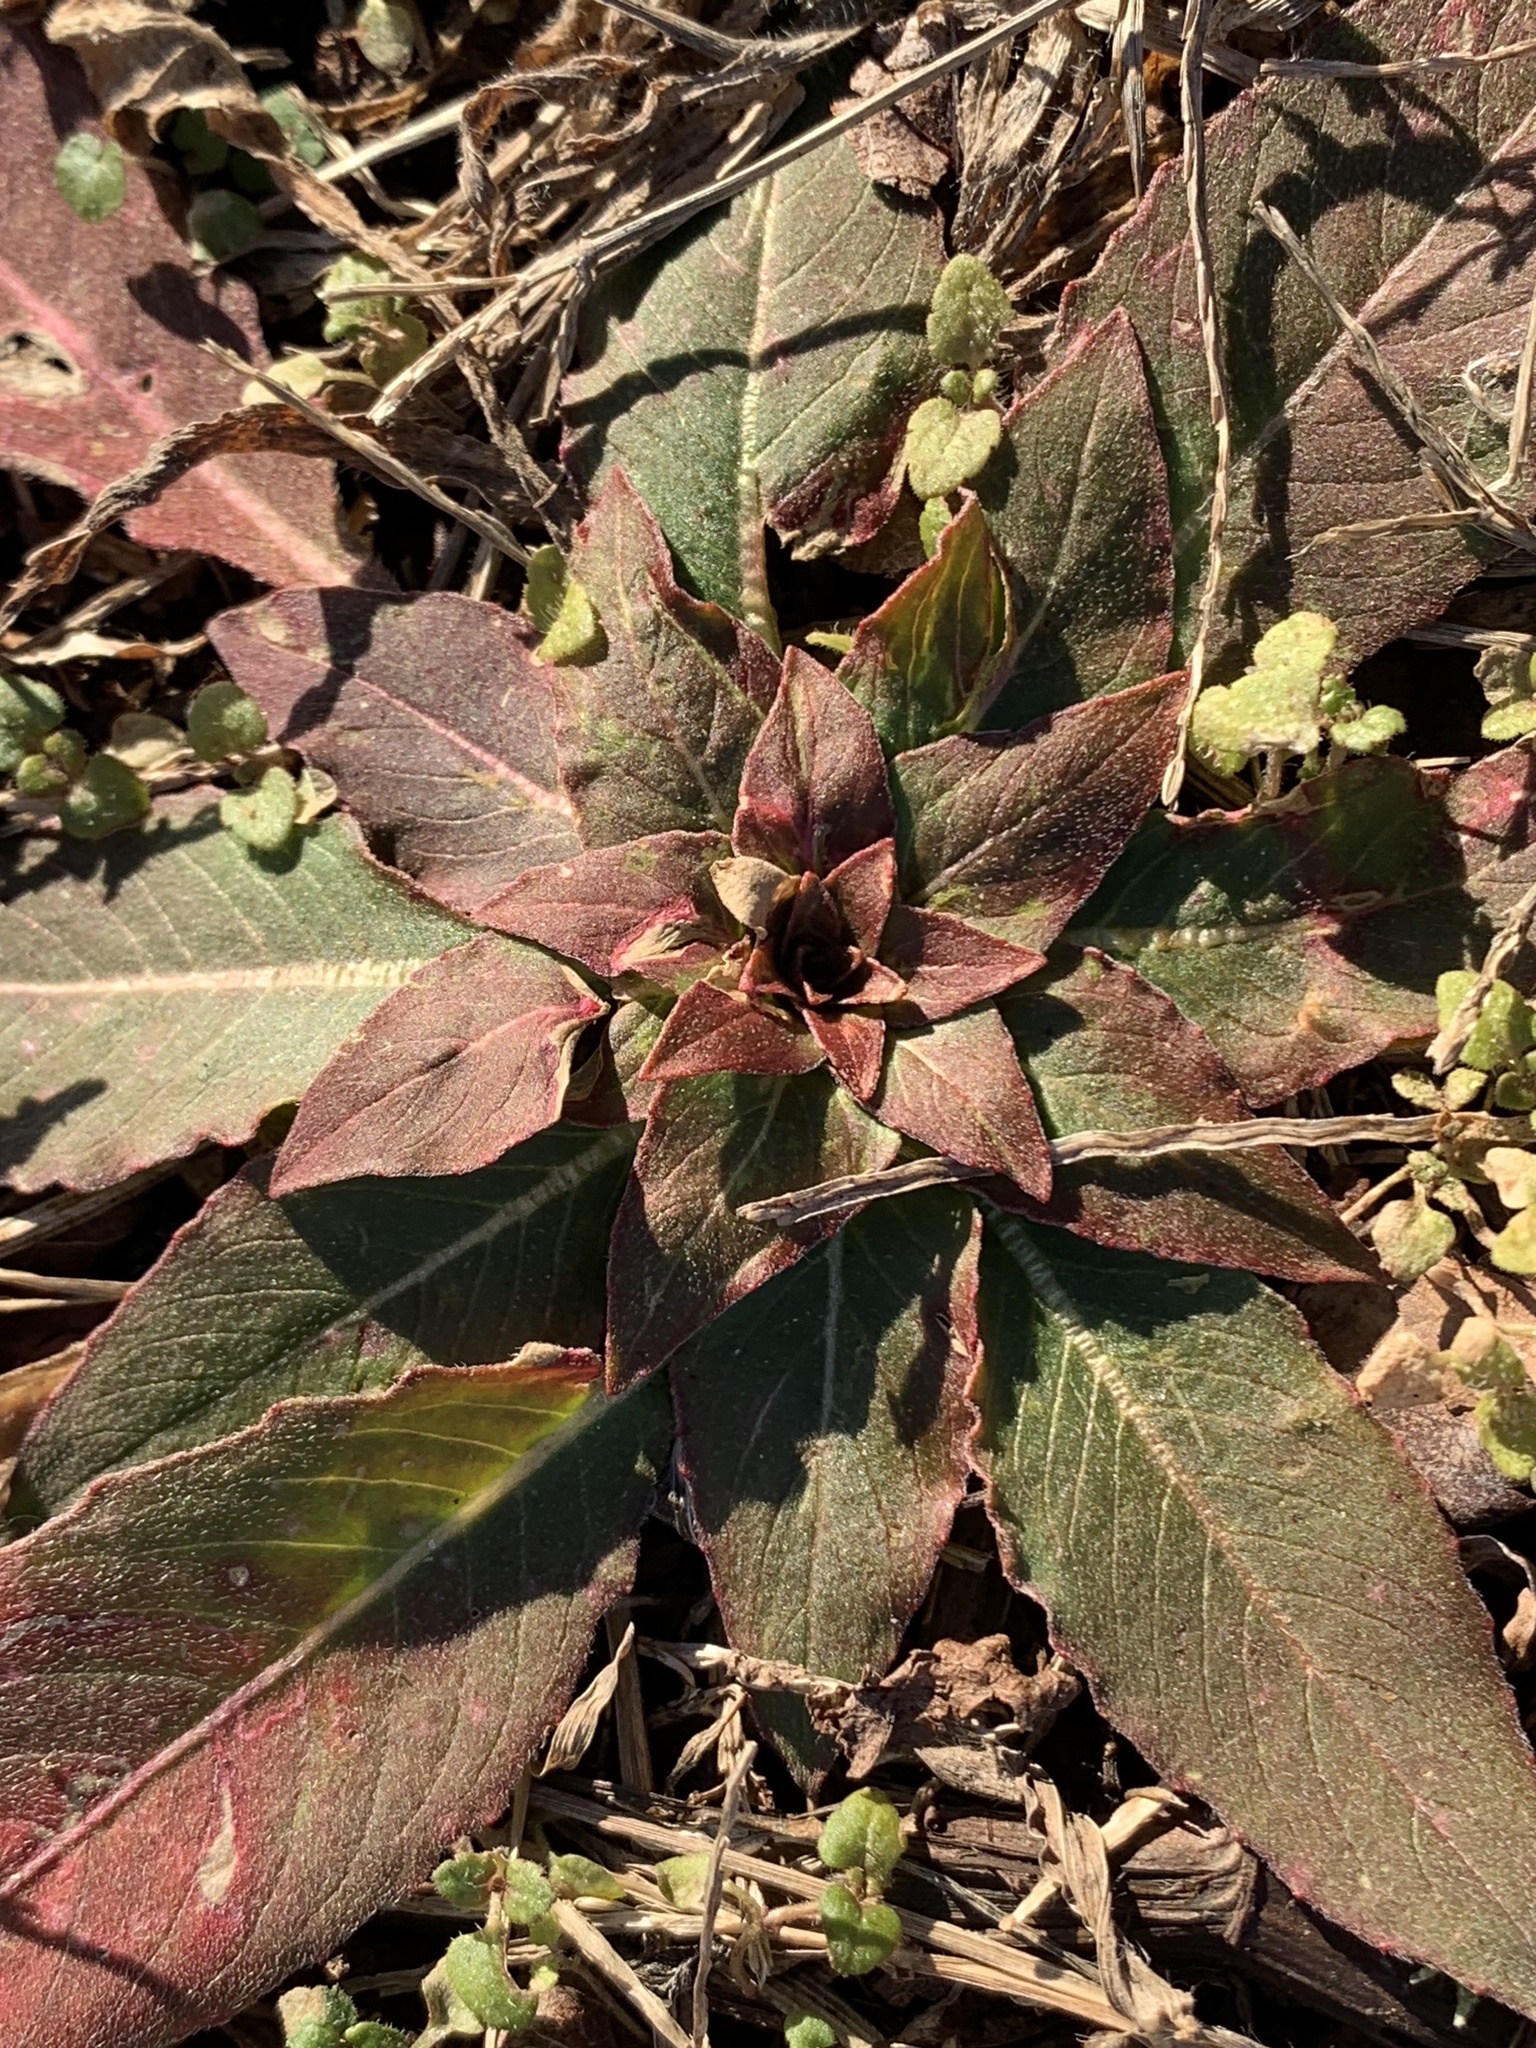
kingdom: Plantae
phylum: Tracheophyta
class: Magnoliopsida
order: Myrtales
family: Onagraceae
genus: Oenothera
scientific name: Oenothera biennis
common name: Common evening-primrose
